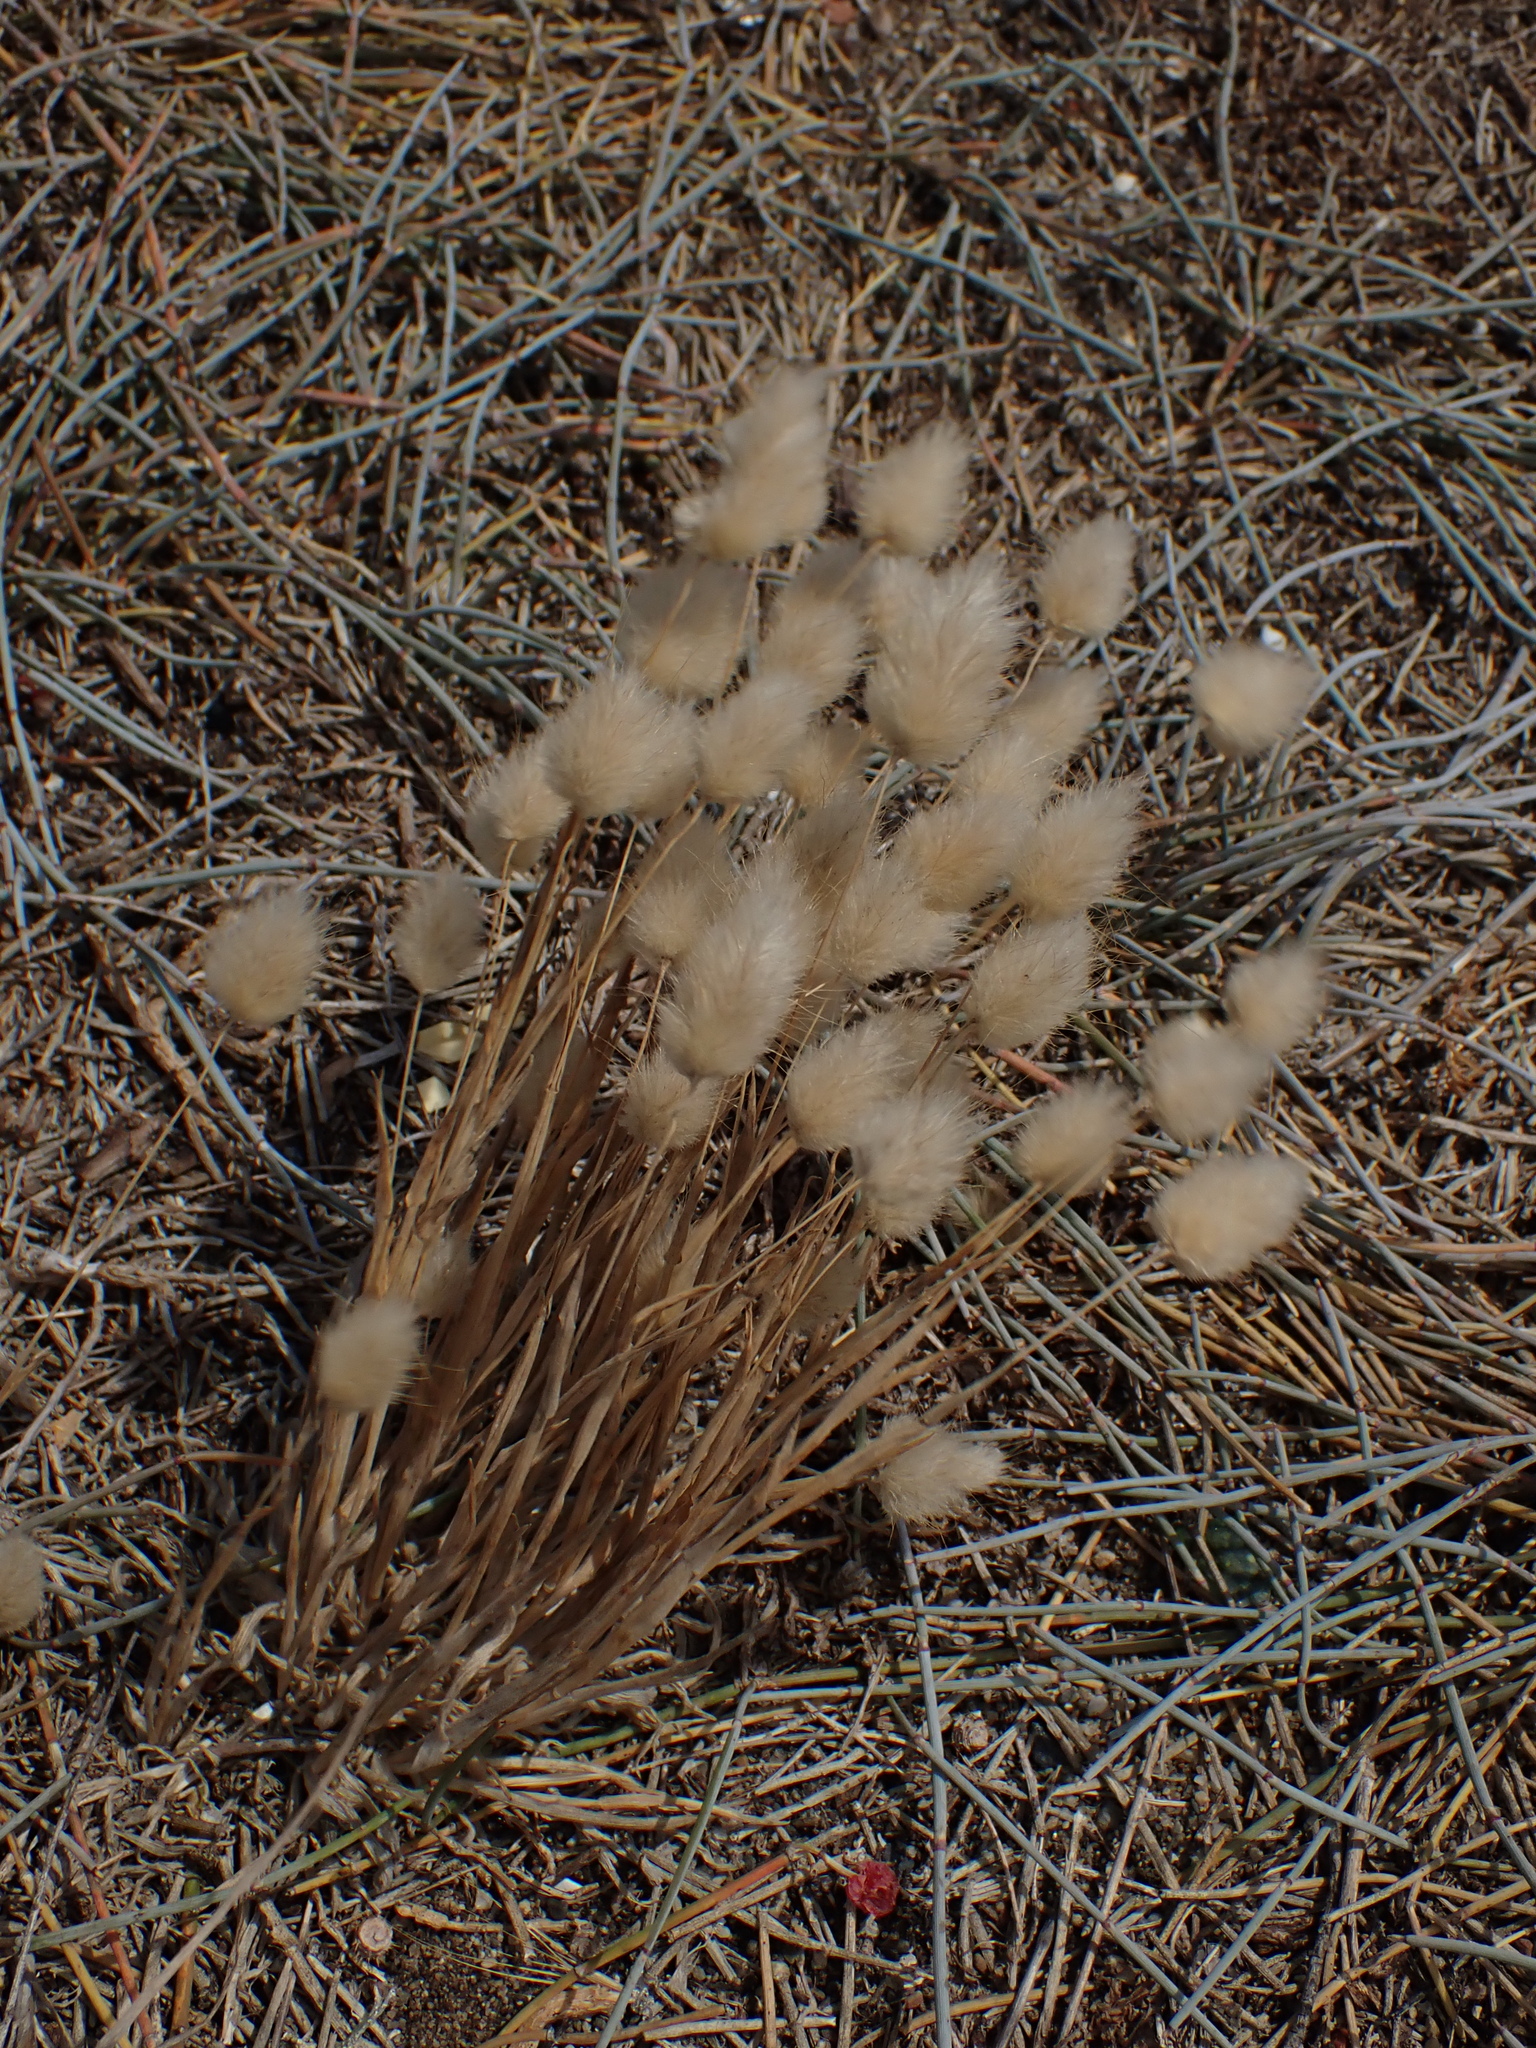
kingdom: Plantae
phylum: Tracheophyta
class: Liliopsida
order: Poales
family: Poaceae
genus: Lagurus
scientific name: Lagurus ovatus
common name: Hare's-tail
